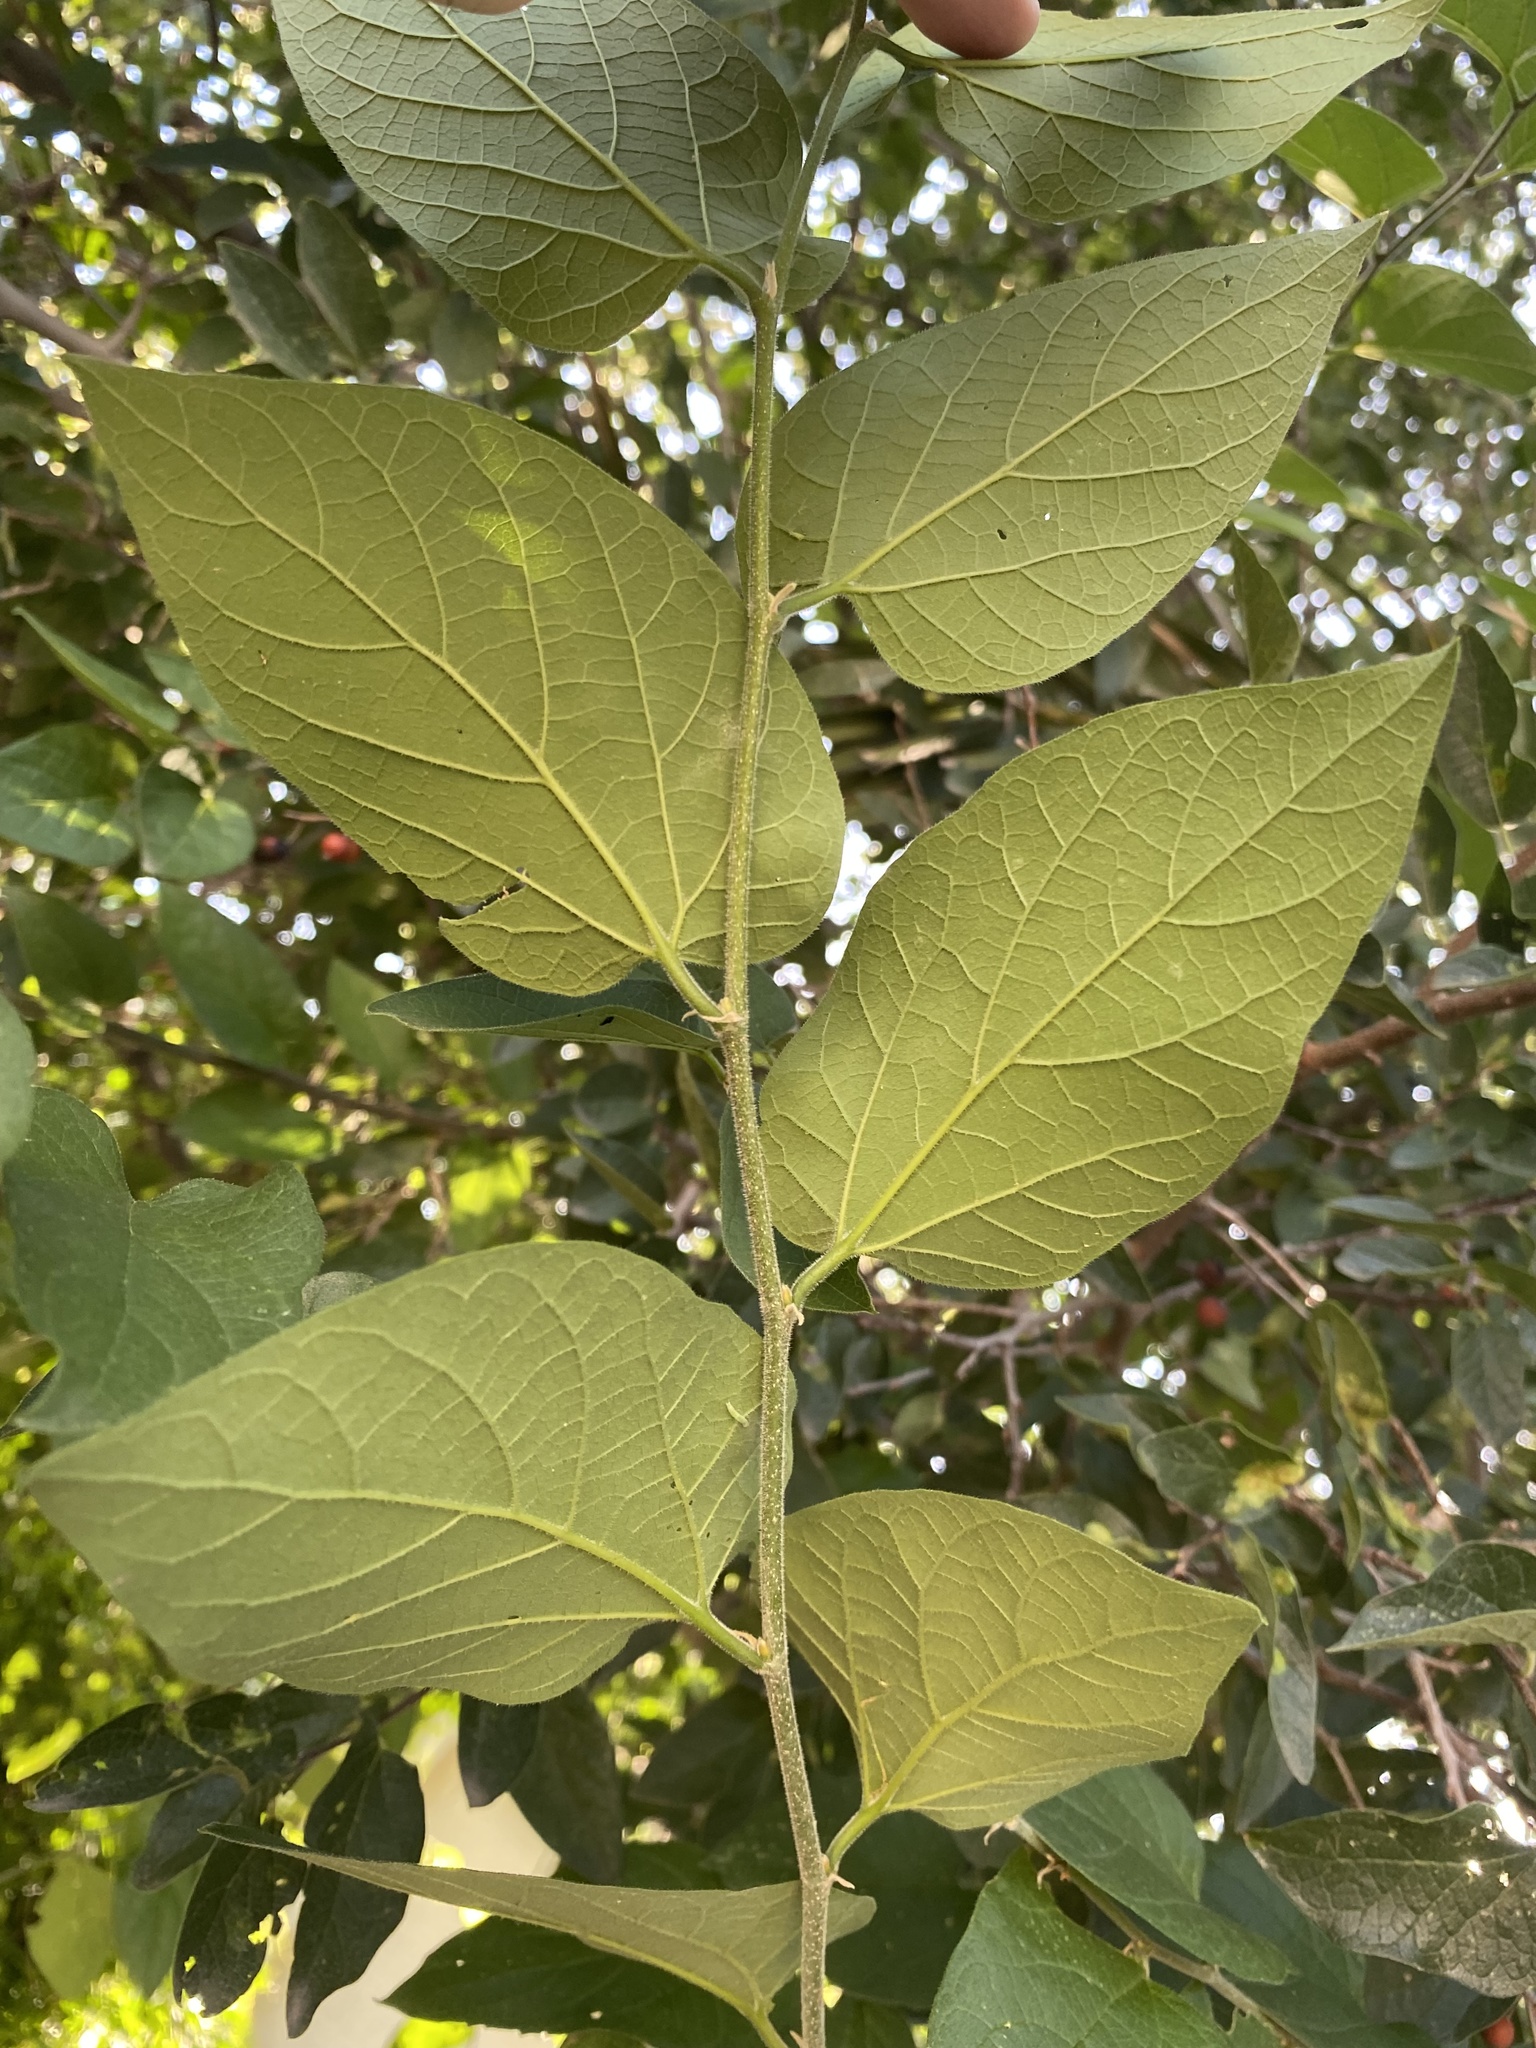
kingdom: Plantae
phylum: Tracheophyta
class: Magnoliopsida
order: Rosales
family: Cannabaceae
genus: Celtis
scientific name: Celtis reticulata
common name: Netleaf hackberry
